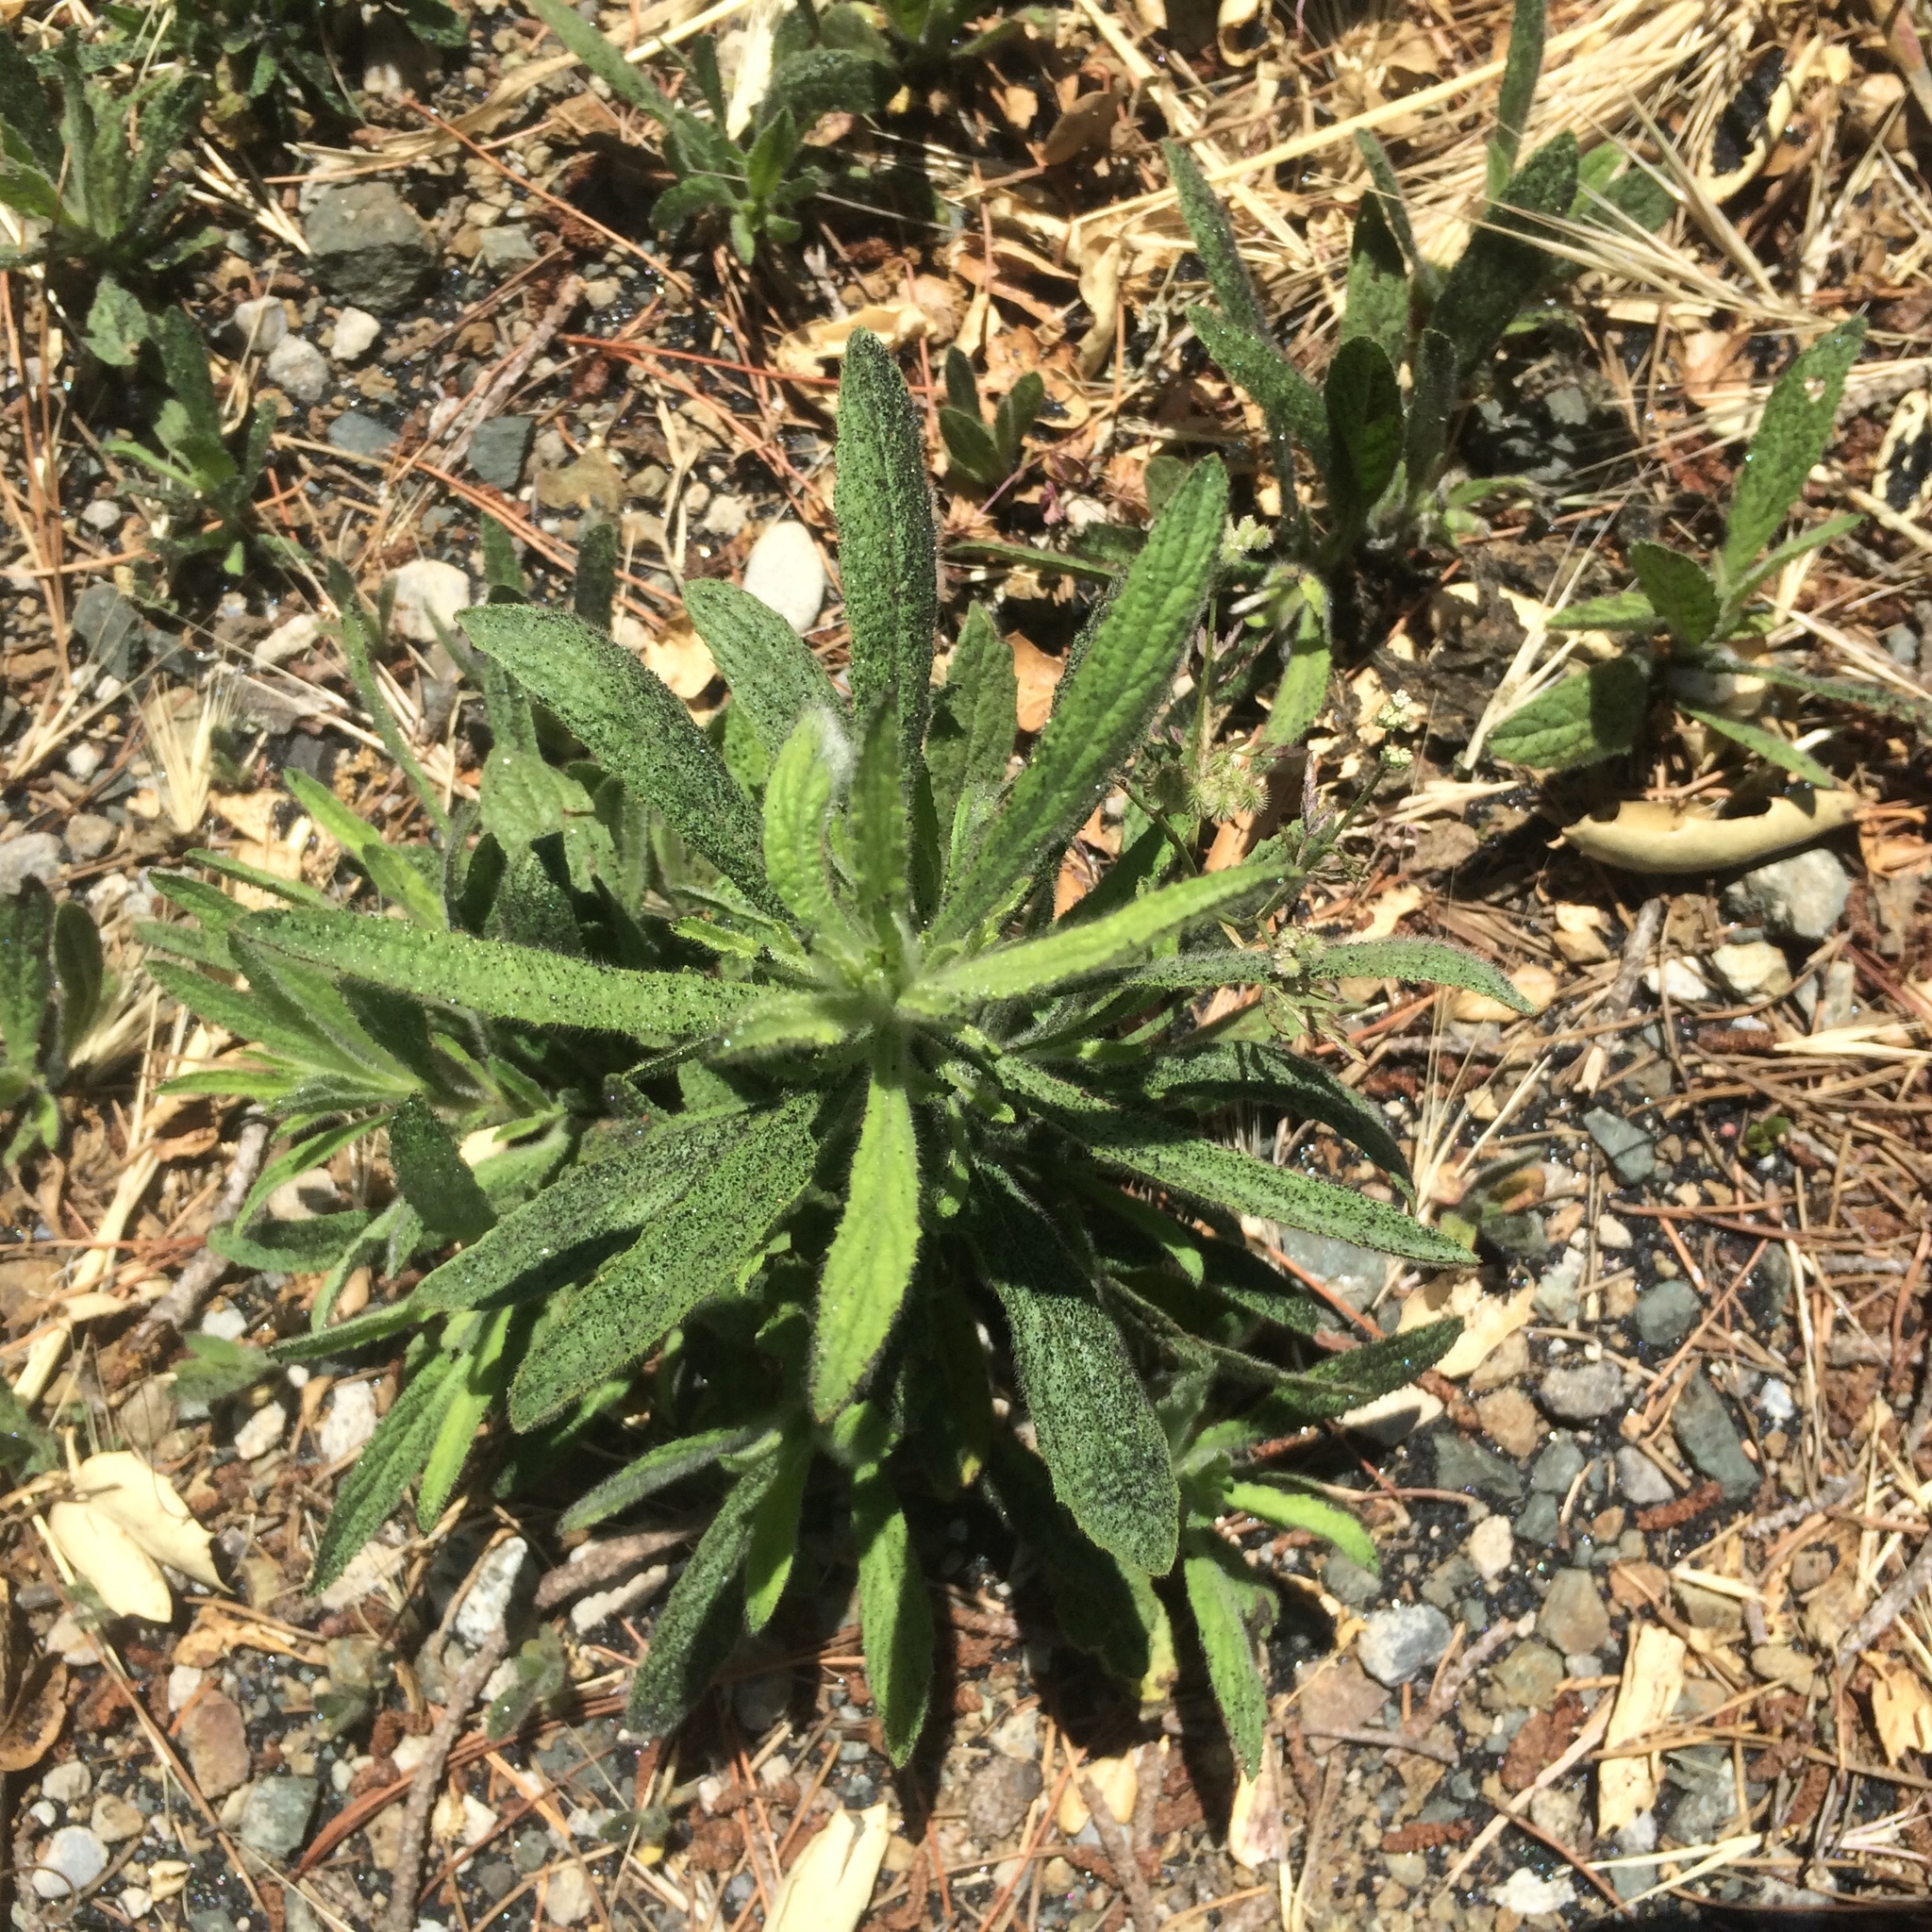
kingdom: Plantae
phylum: Tracheophyta
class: Magnoliopsida
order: Asterales
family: Asteraceae
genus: Dittrichia
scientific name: Dittrichia graveolens
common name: Stinking fleabane
